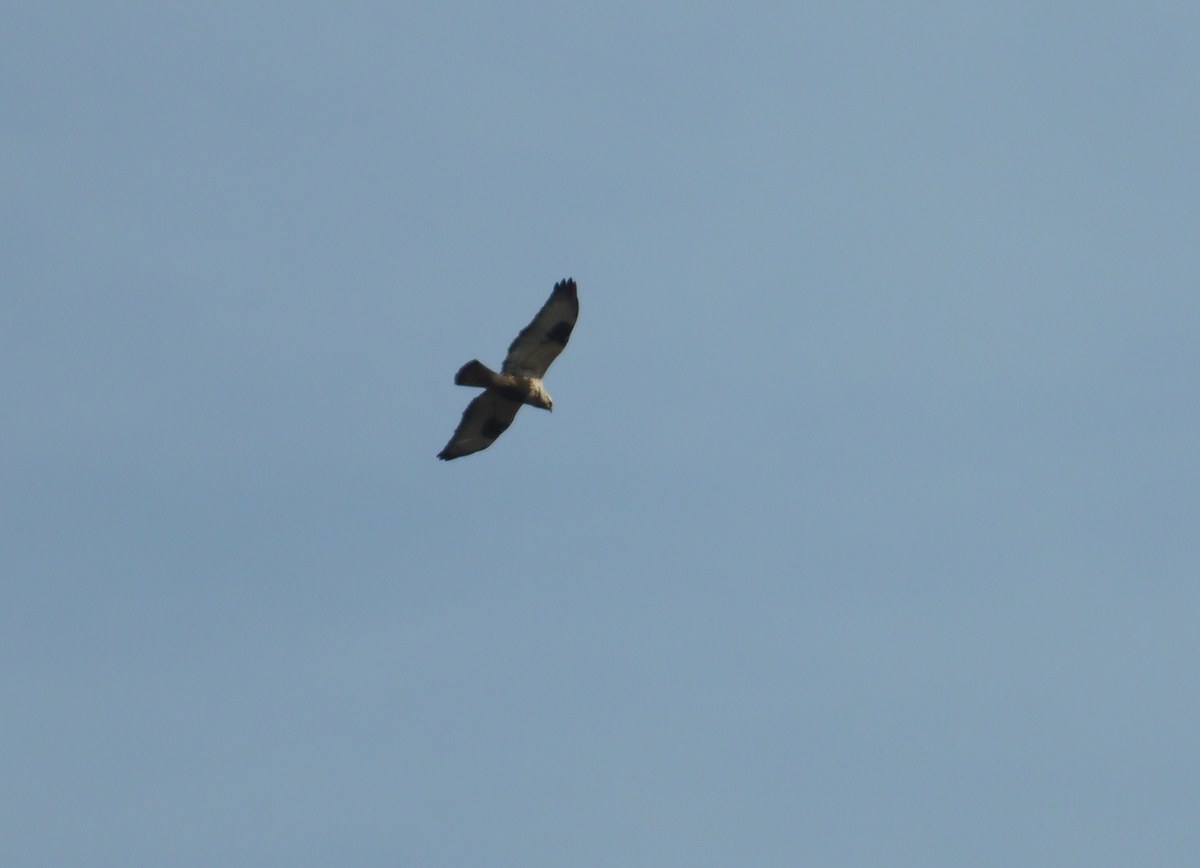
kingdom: Animalia
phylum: Chordata
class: Aves
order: Accipitriformes
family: Accipitridae
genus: Buteo
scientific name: Buteo lagopus
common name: Rough-legged buzzard
